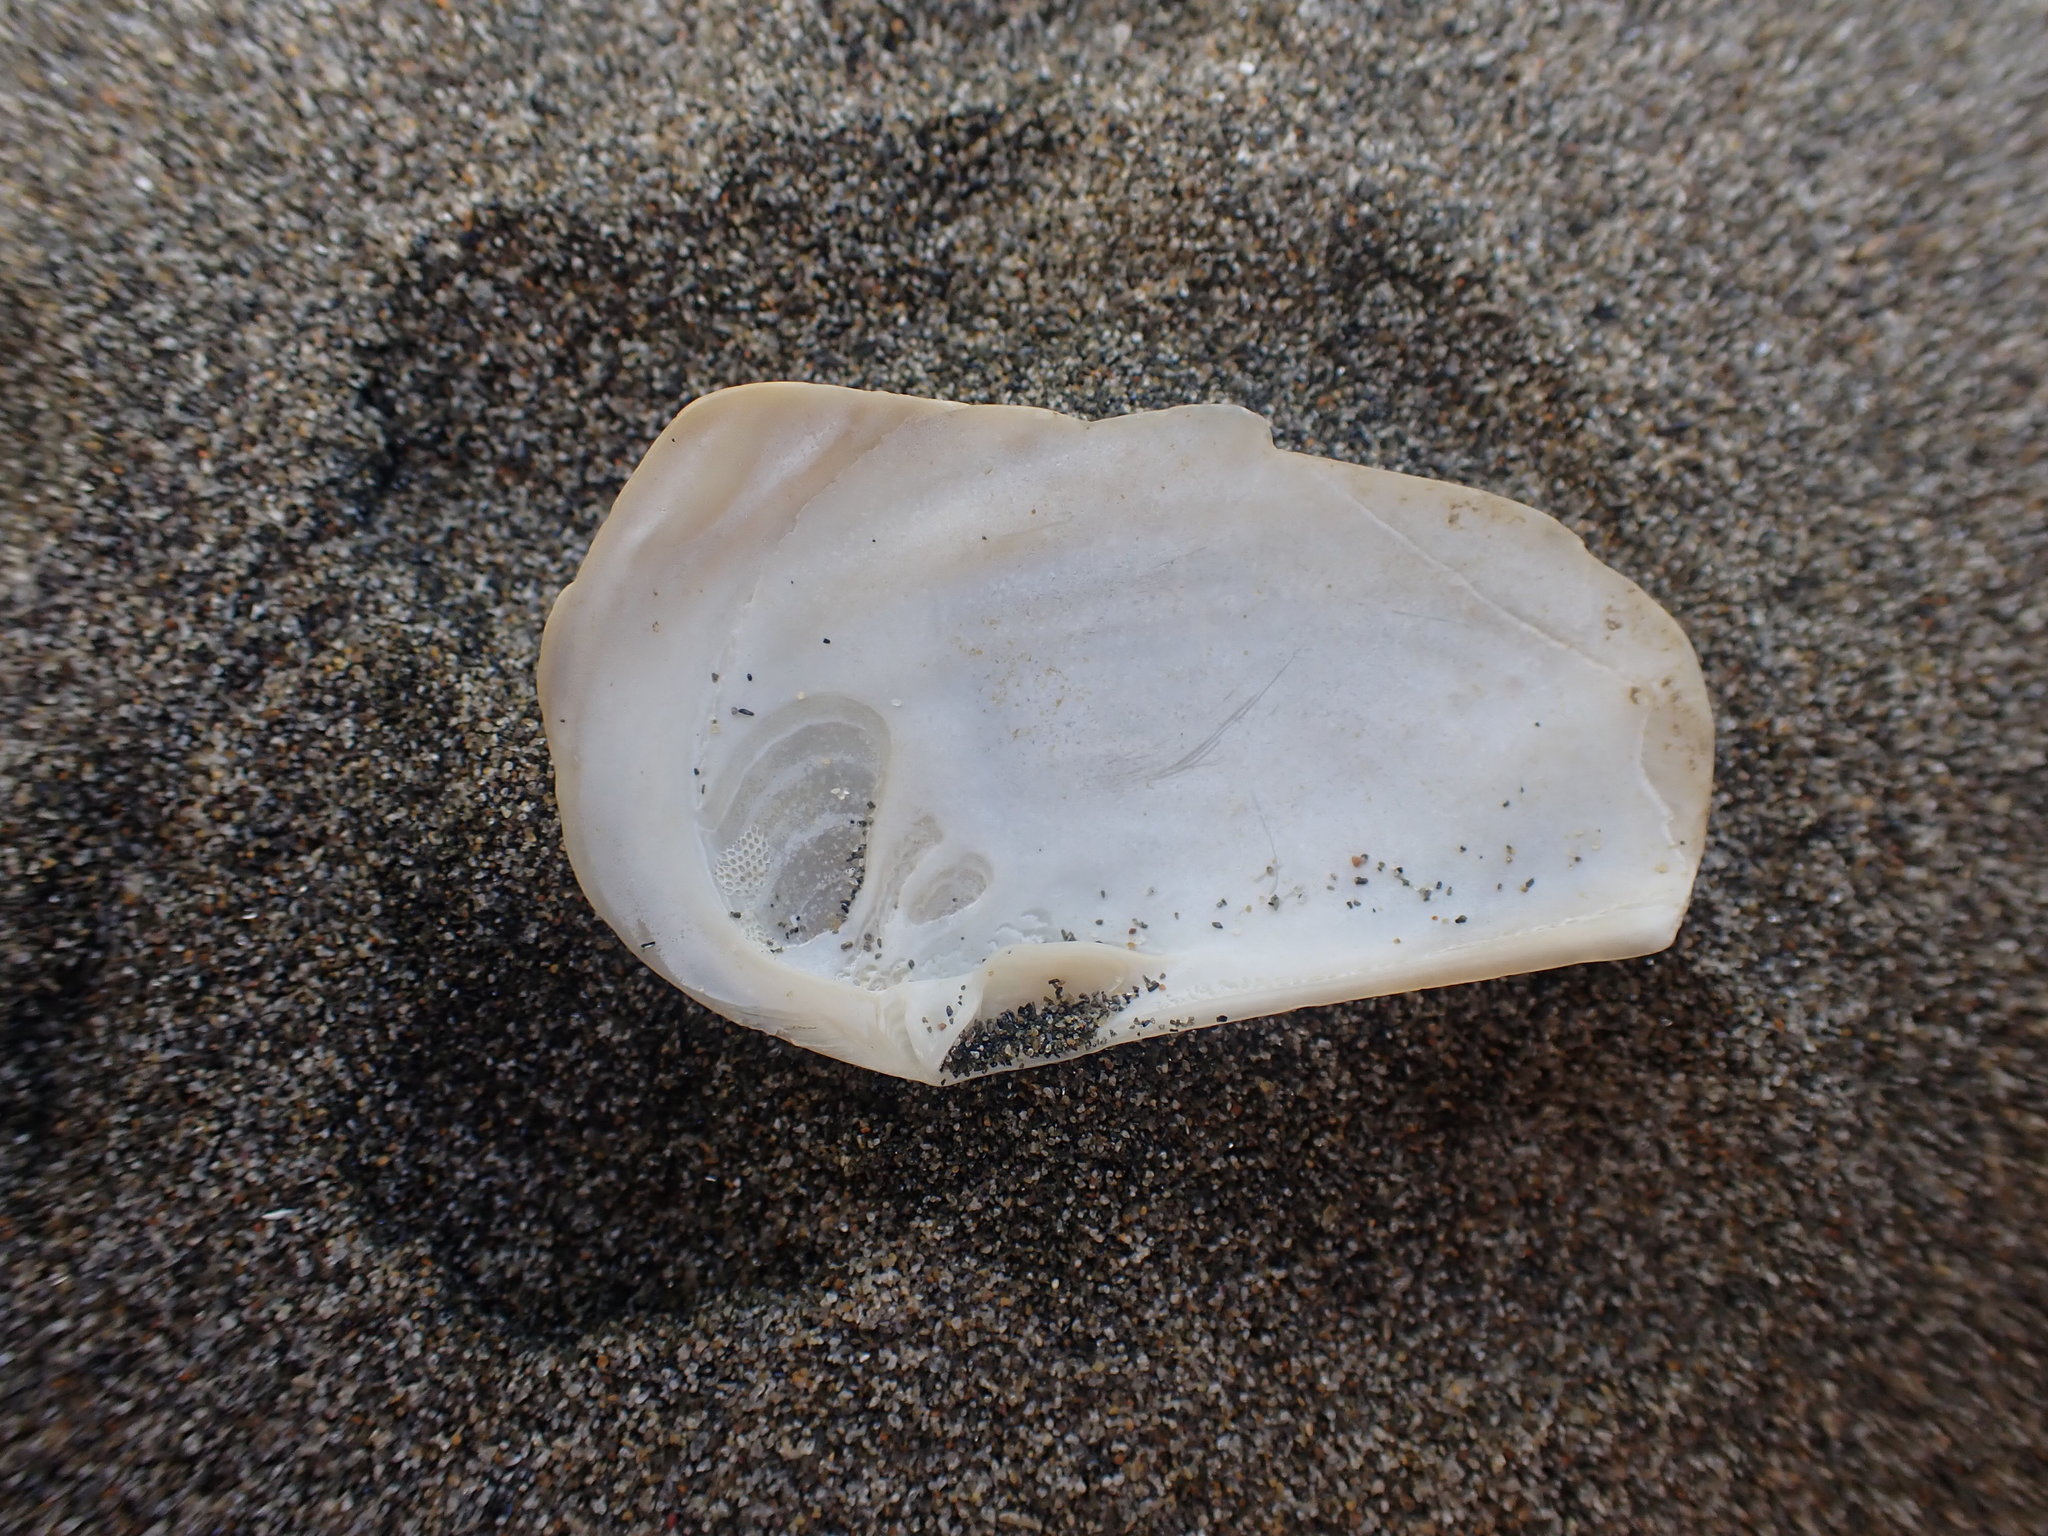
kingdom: Animalia
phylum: Mollusca
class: Bivalvia
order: Venerida
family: Mactridae
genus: Zenatia
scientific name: Zenatia acinaces
